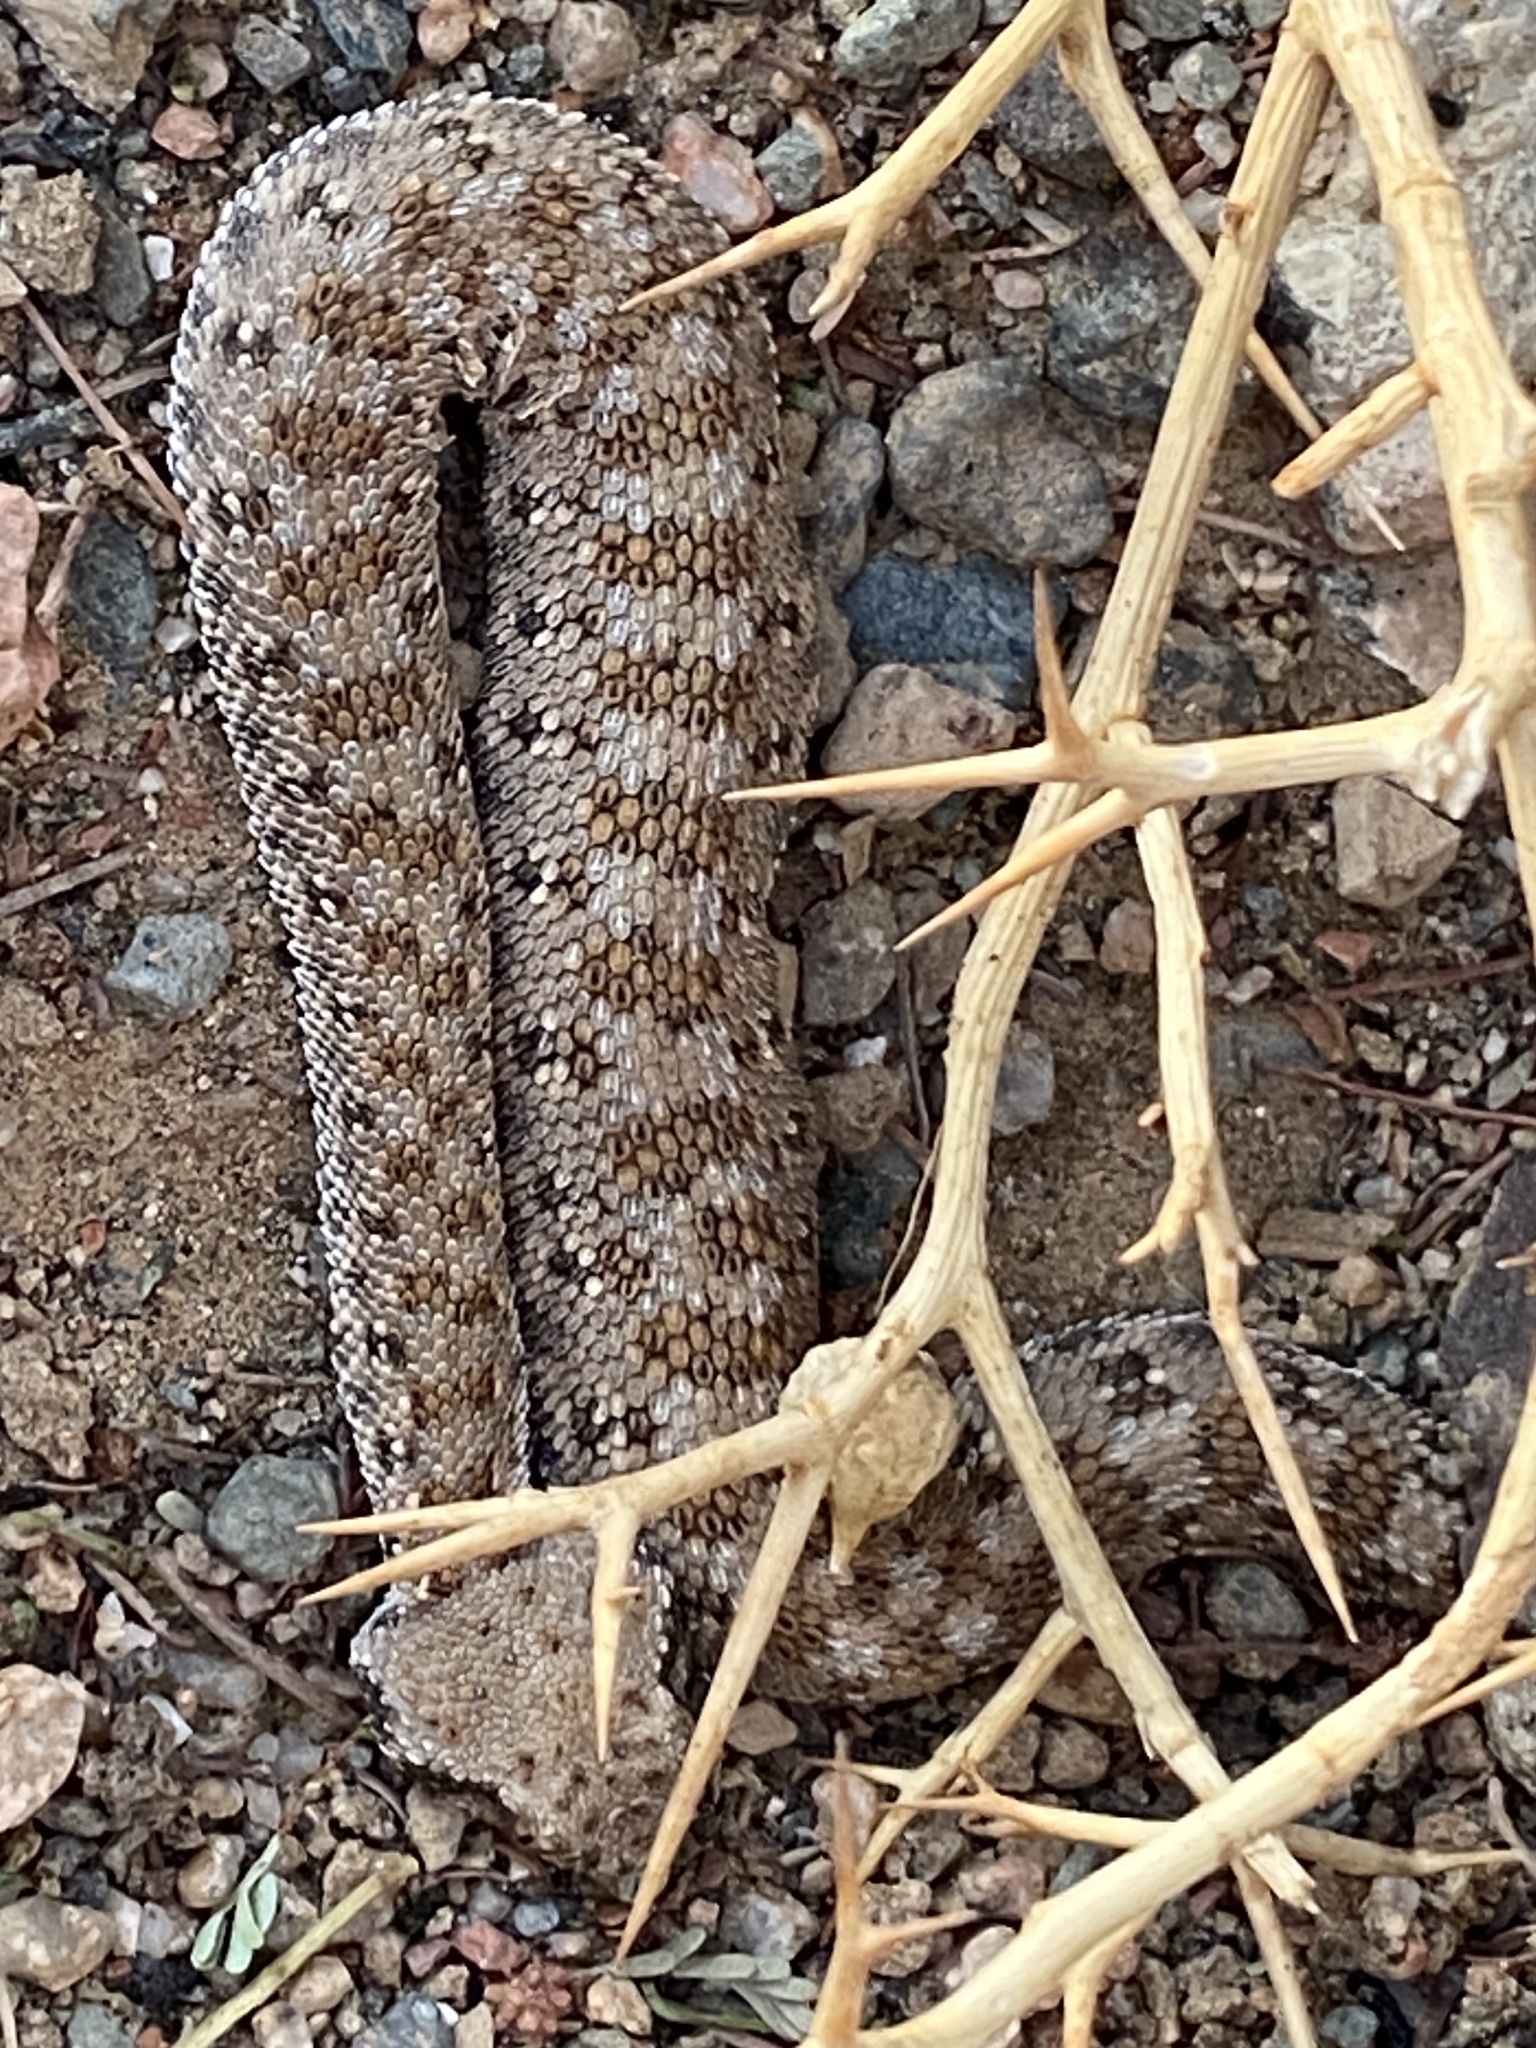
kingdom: Animalia
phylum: Chordata
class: Squamata
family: Viperidae
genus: Cerastes
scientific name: Cerastes cerastes
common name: Desert horned viper
